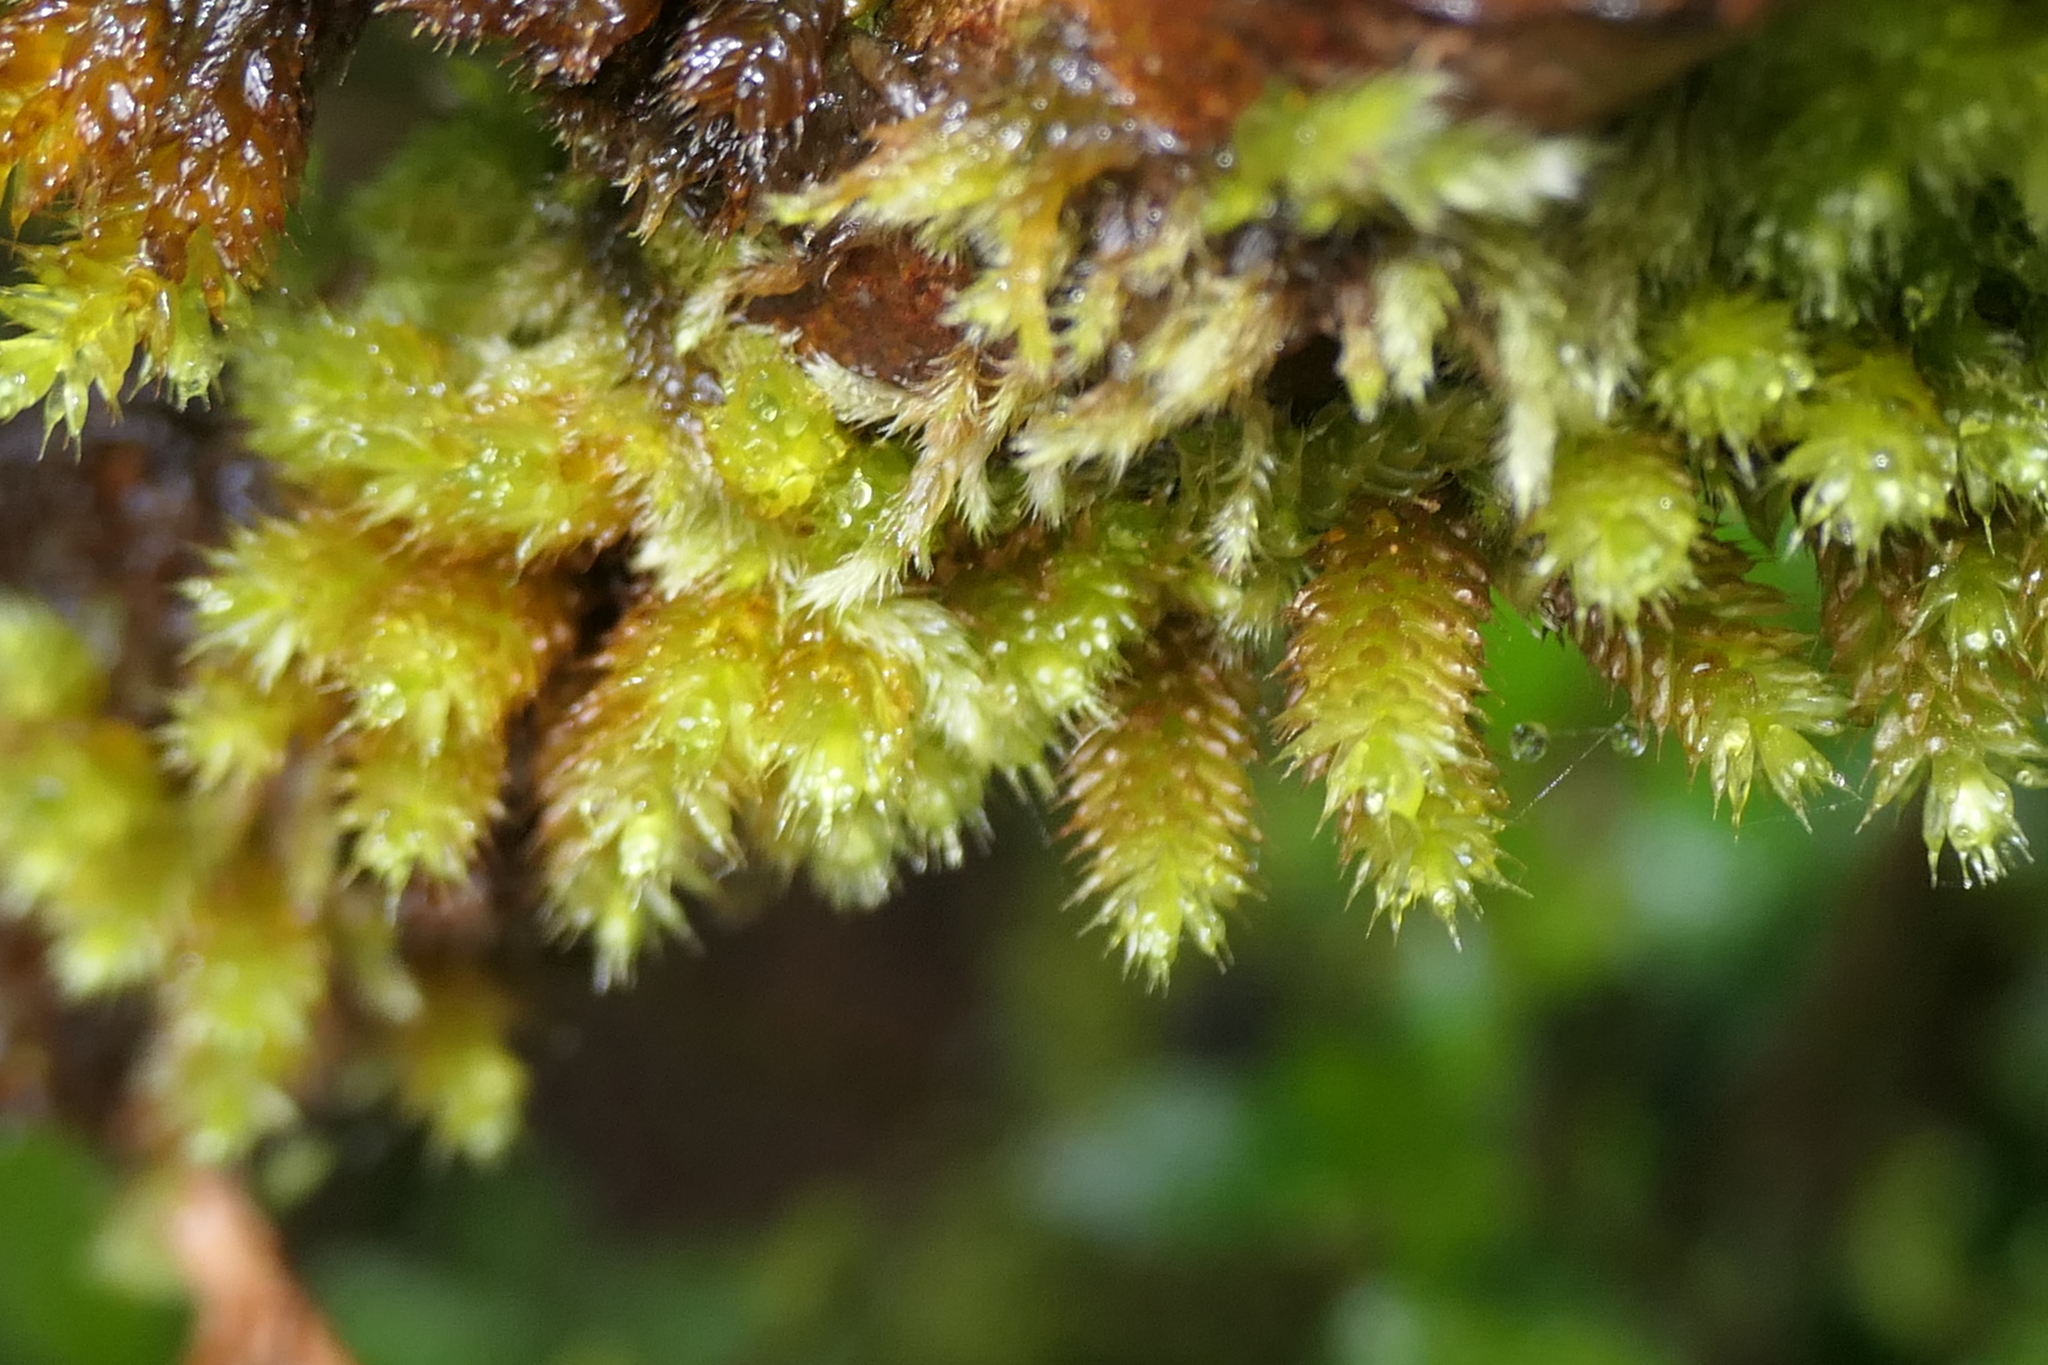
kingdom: Plantae
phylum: Bryophyta
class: Bryopsida
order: Hypnales
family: Myuriaceae
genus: Myurium
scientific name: Myurium hochstetteri
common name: Hare-tail moss
